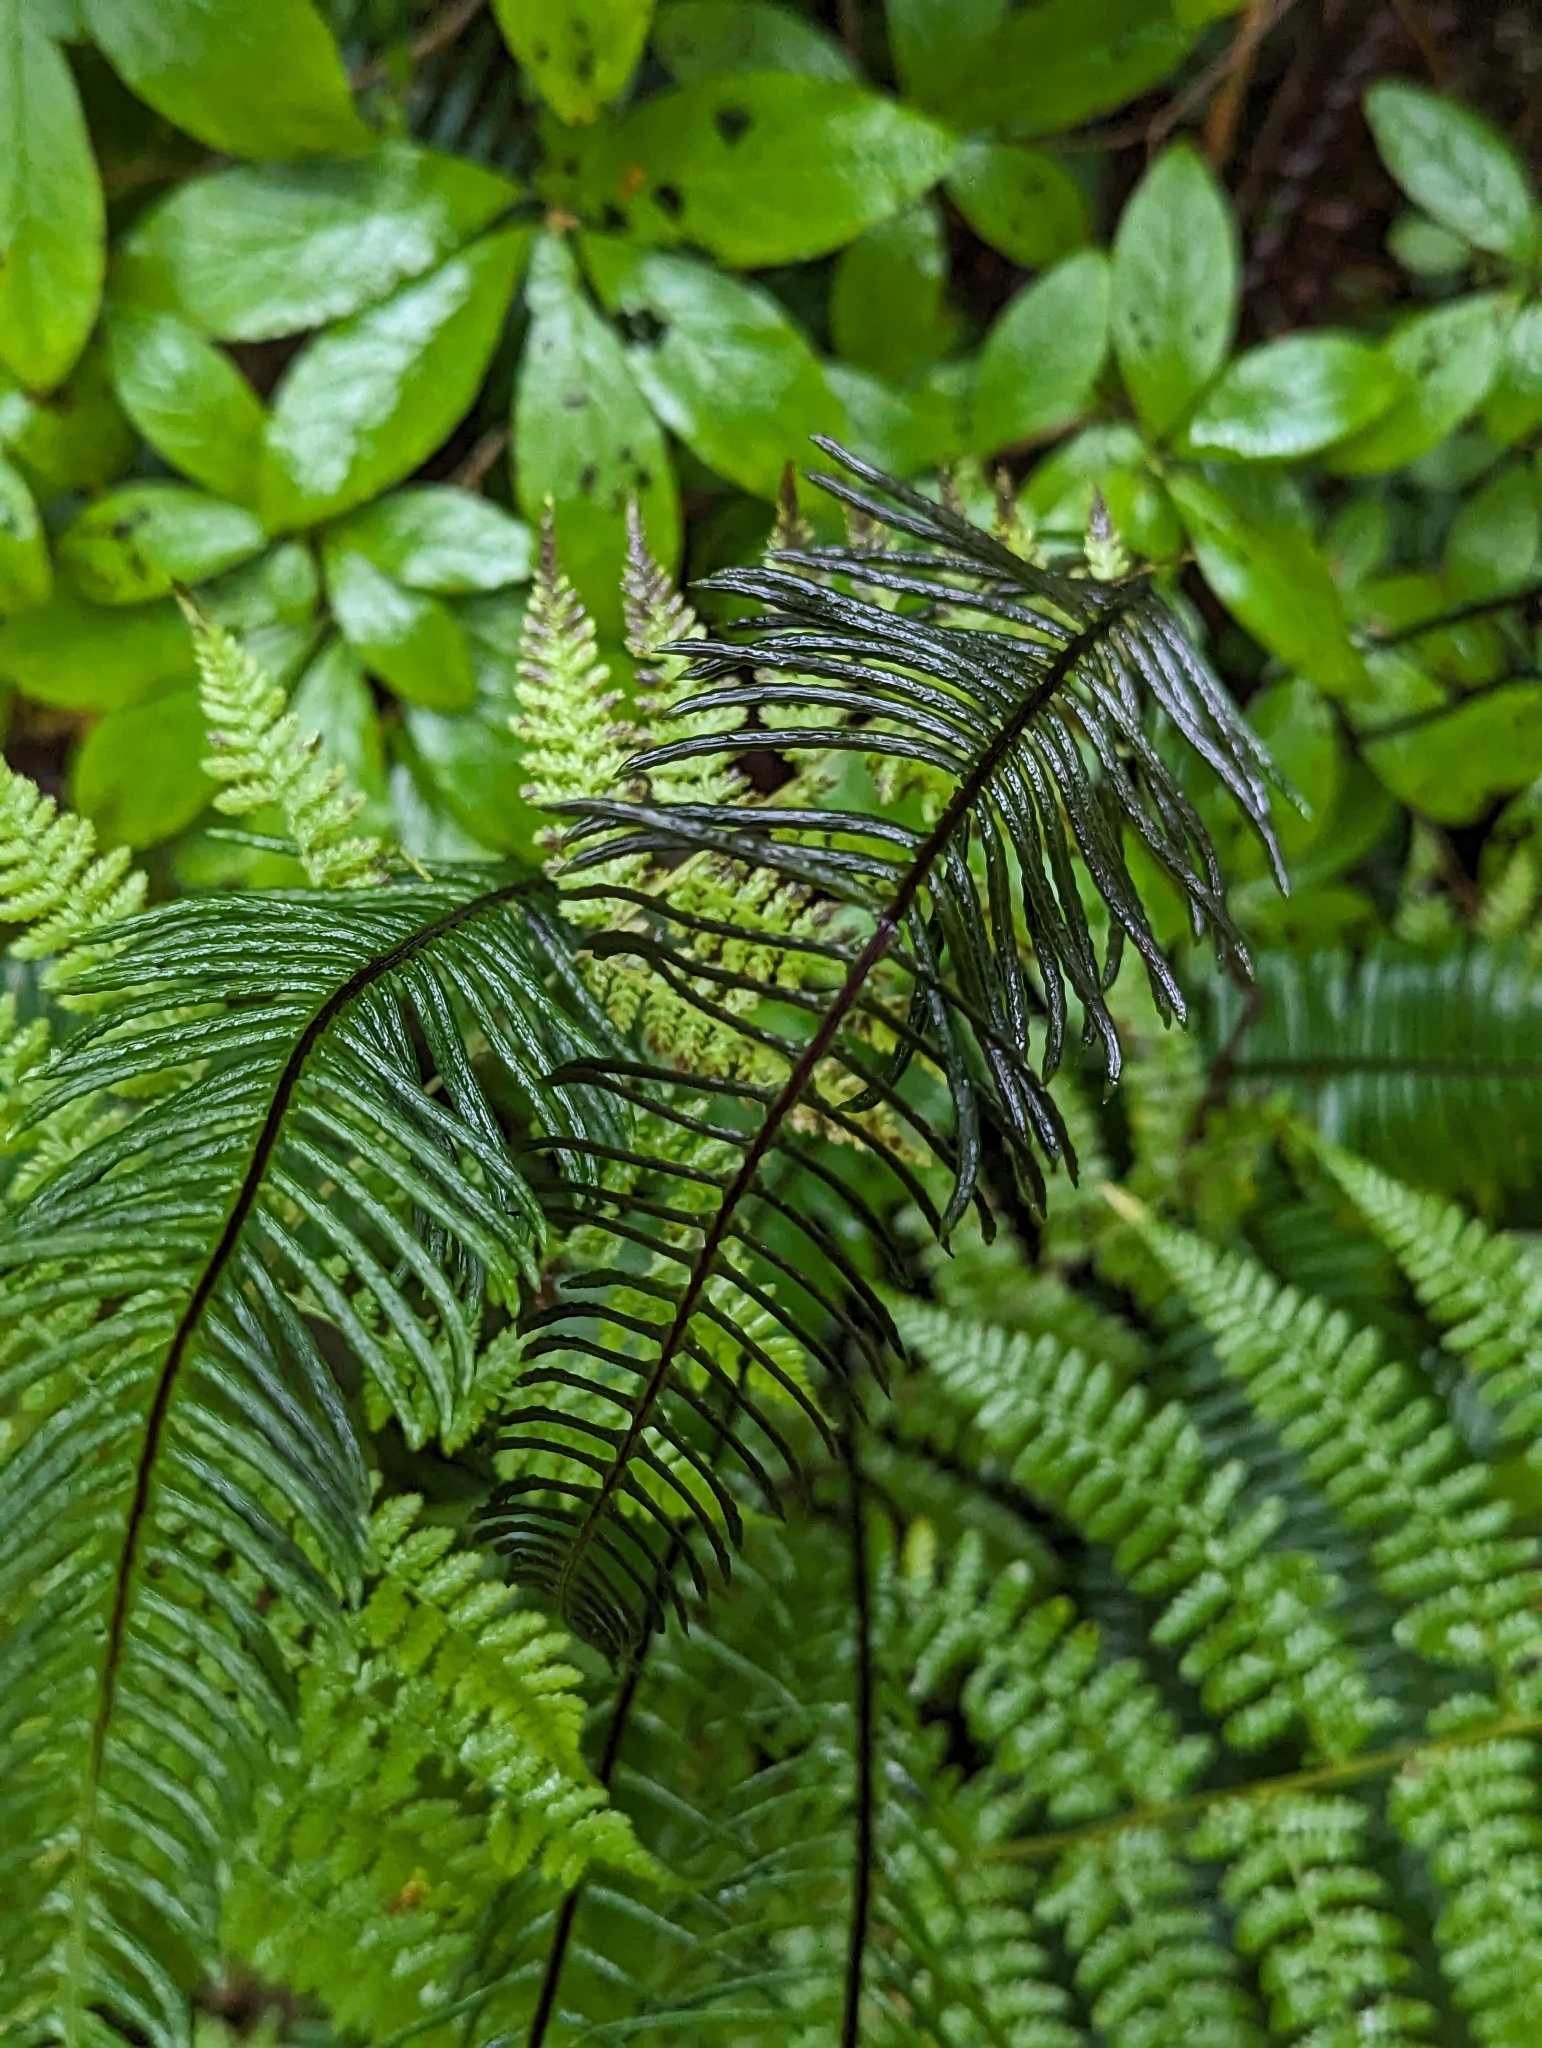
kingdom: Plantae
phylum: Tracheophyta
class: Polypodiopsida
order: Polypodiales
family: Blechnaceae
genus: Struthiopteris
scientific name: Struthiopteris spicant
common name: Deer fern
